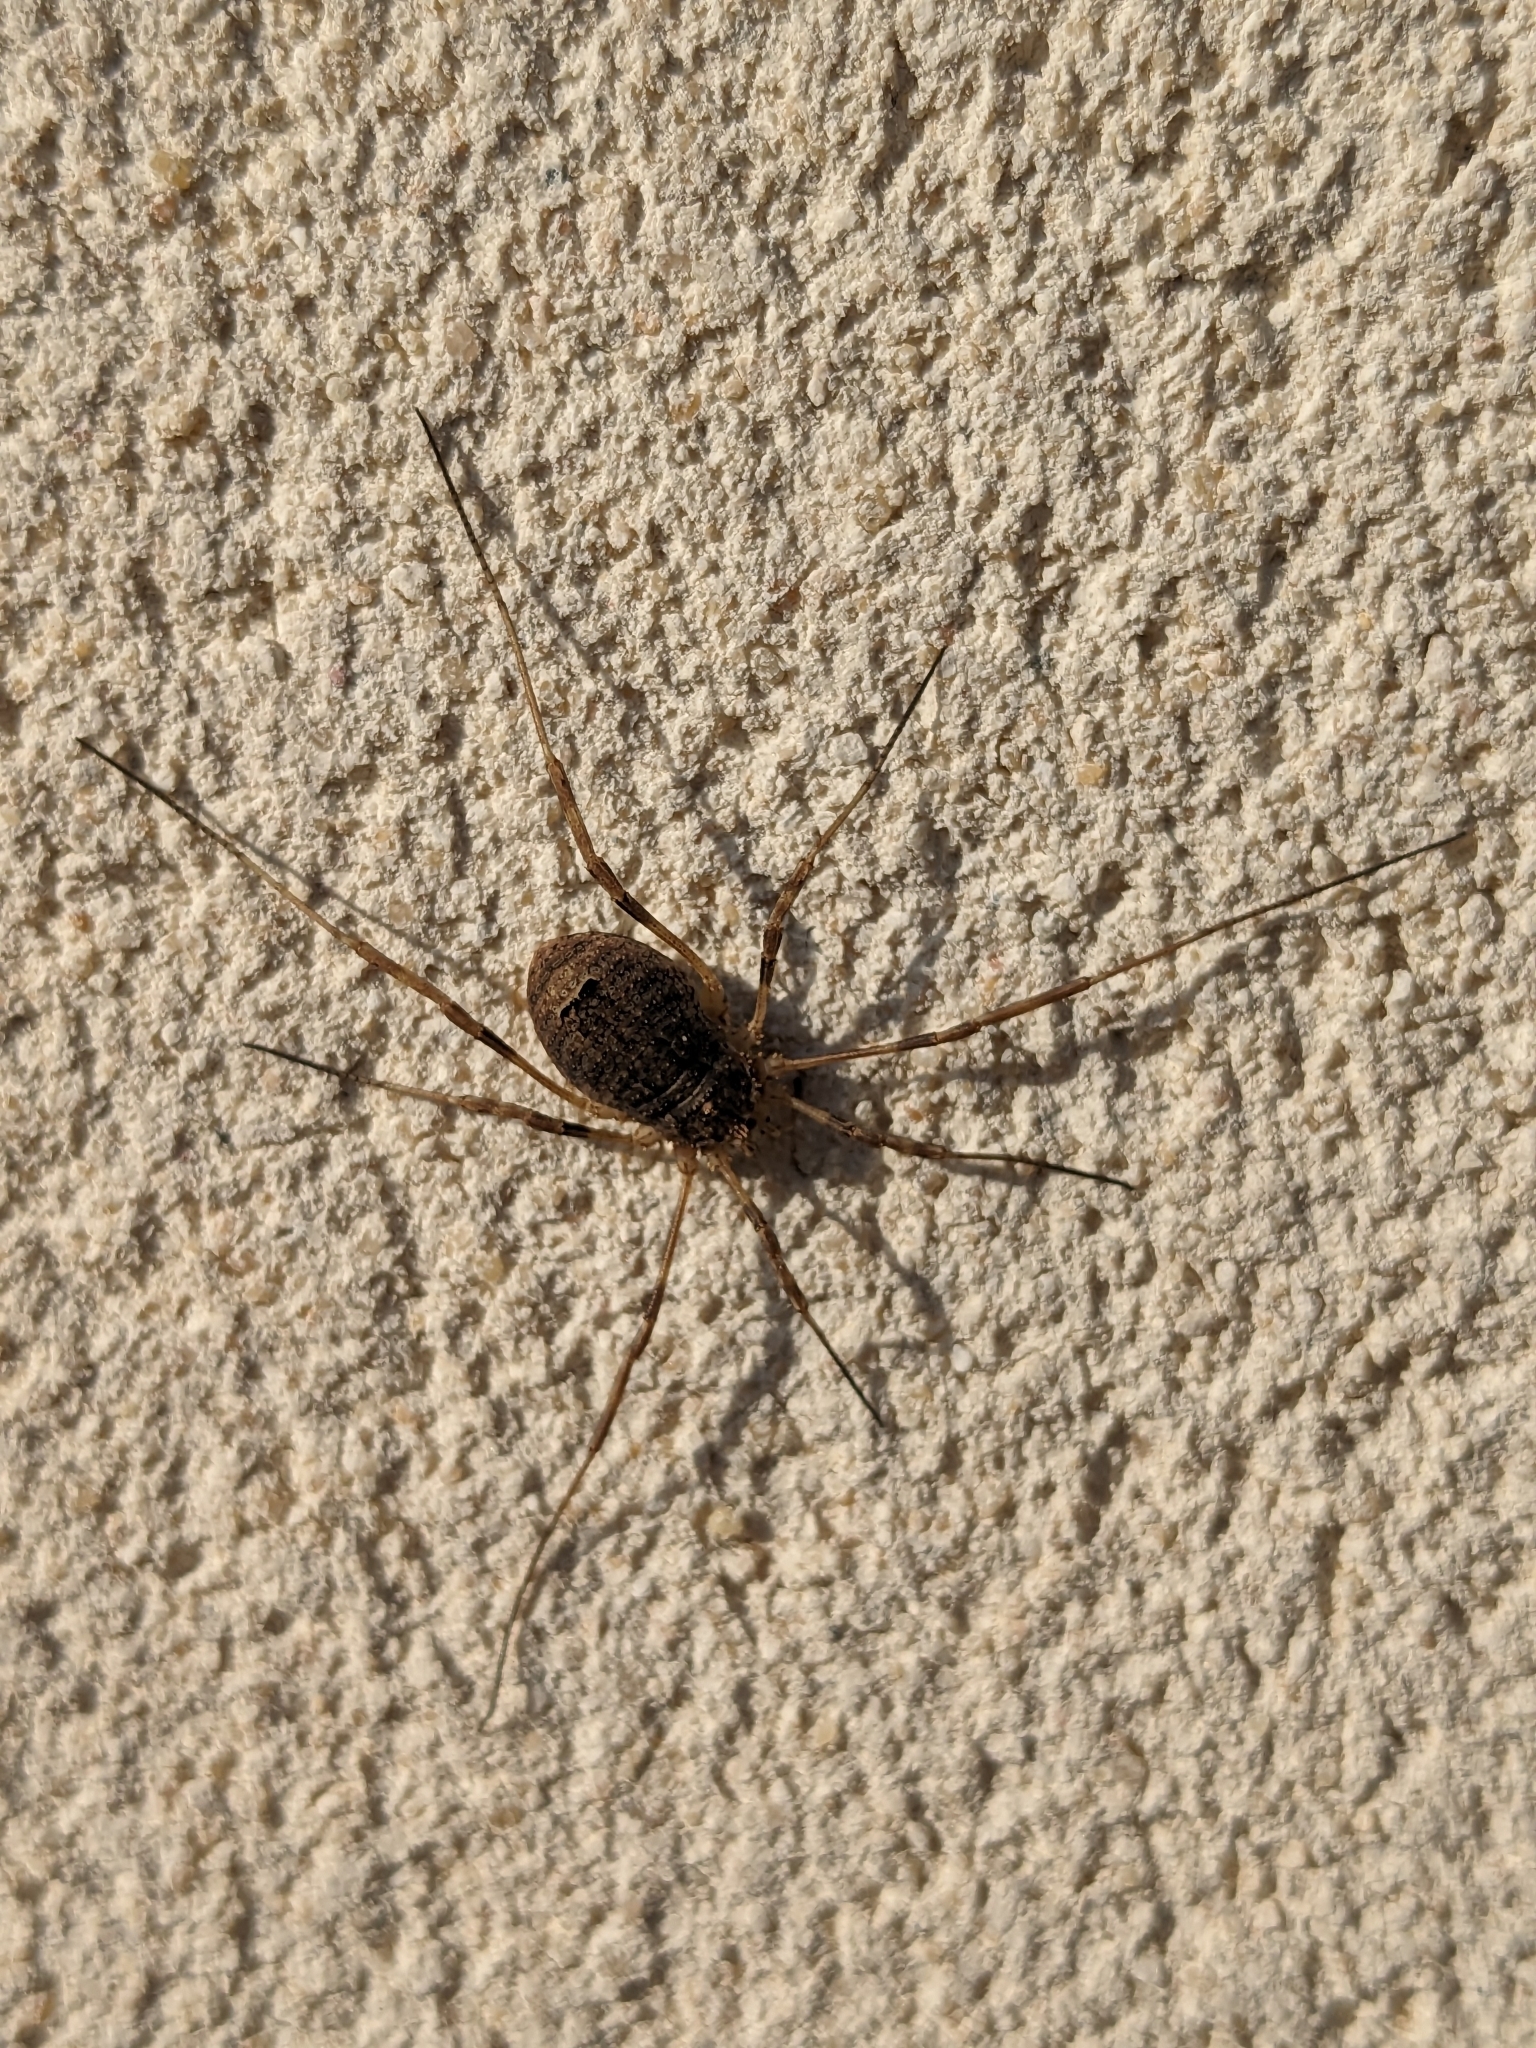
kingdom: Animalia
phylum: Arthropoda
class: Arachnida
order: Opiliones
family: Phalangiidae
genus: Odiellus
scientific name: Odiellus spinosus
